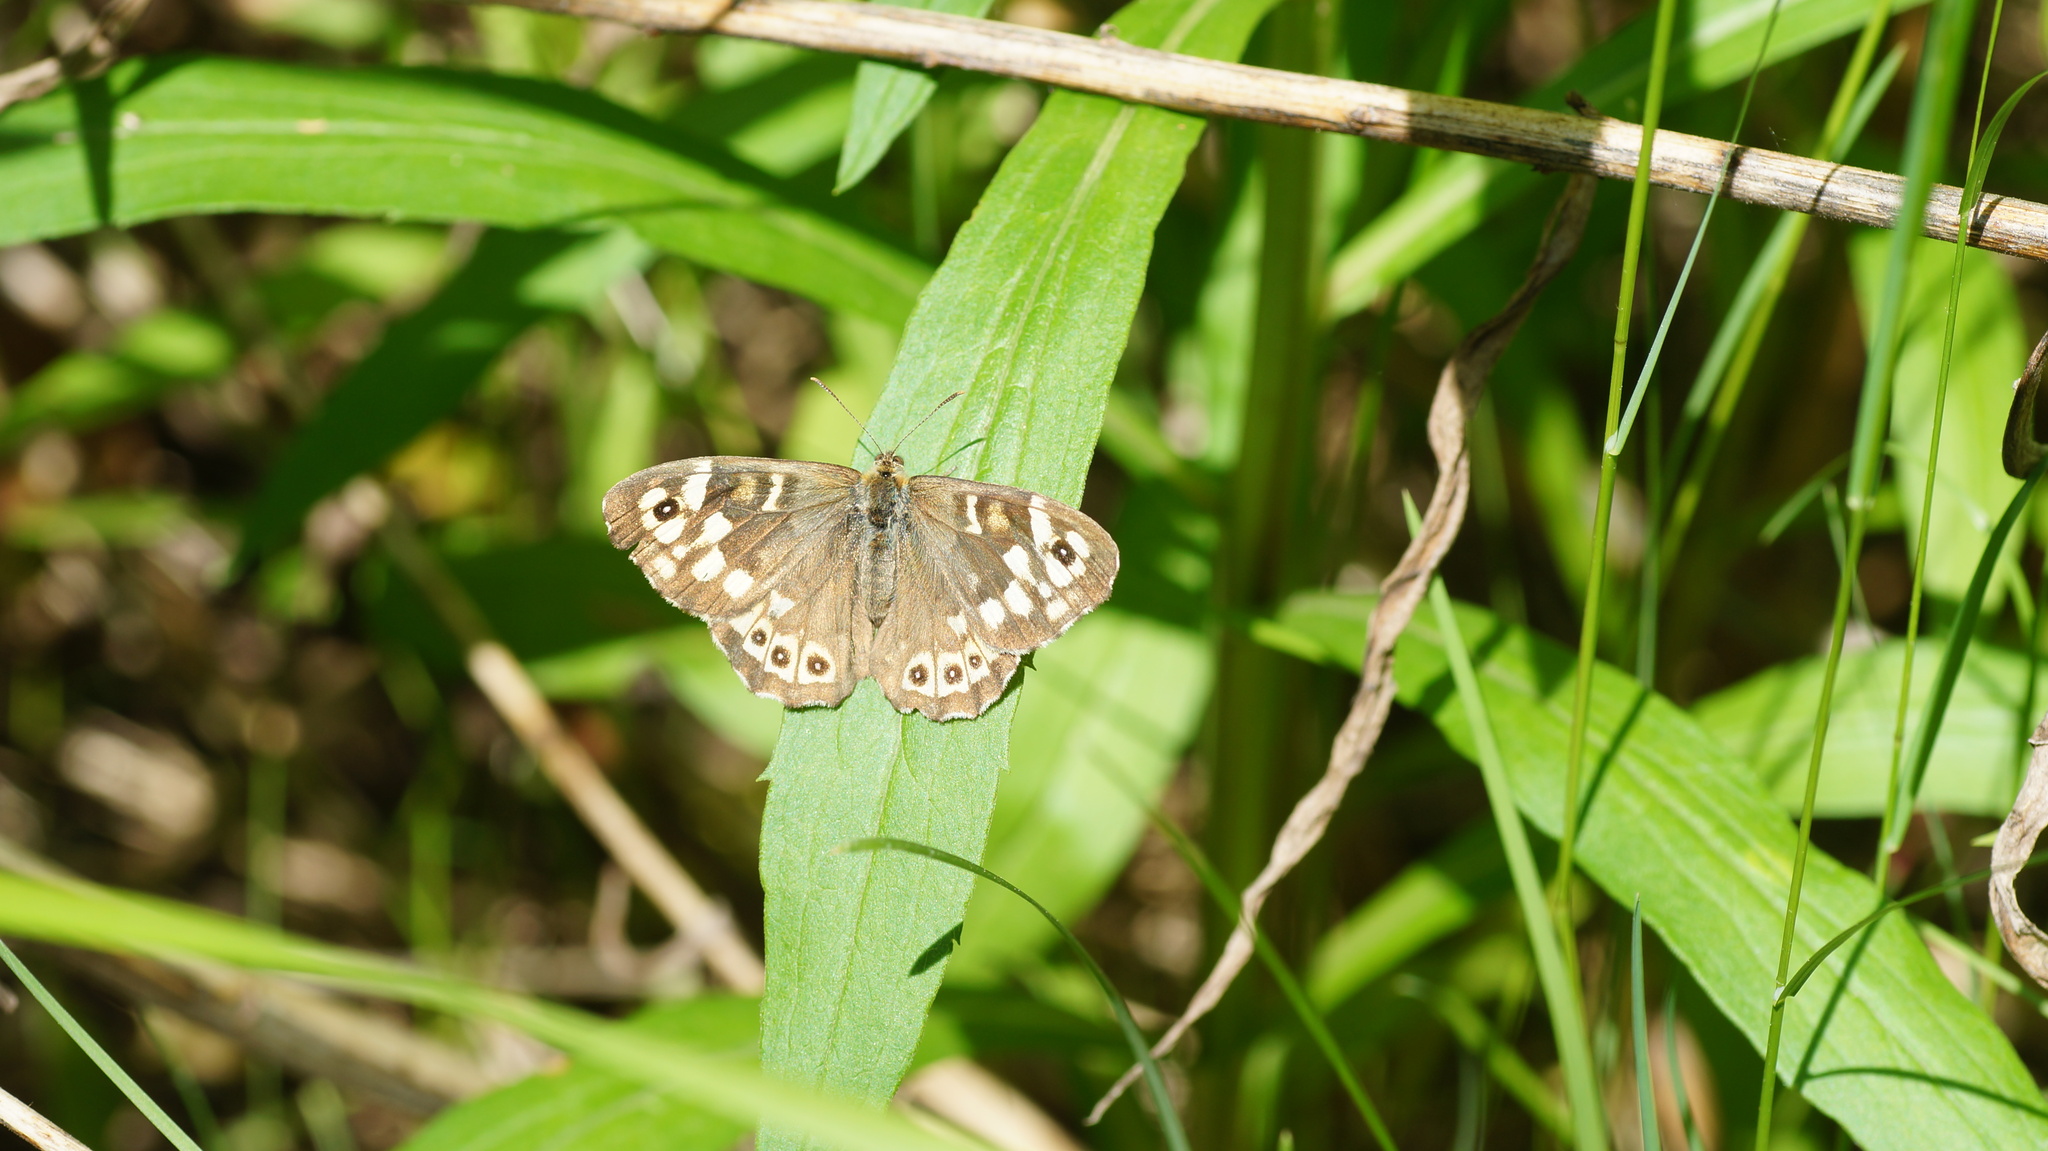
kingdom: Animalia
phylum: Arthropoda
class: Insecta
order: Lepidoptera
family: Nymphalidae
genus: Pararge
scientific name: Pararge aegeria
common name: Speckled wood
